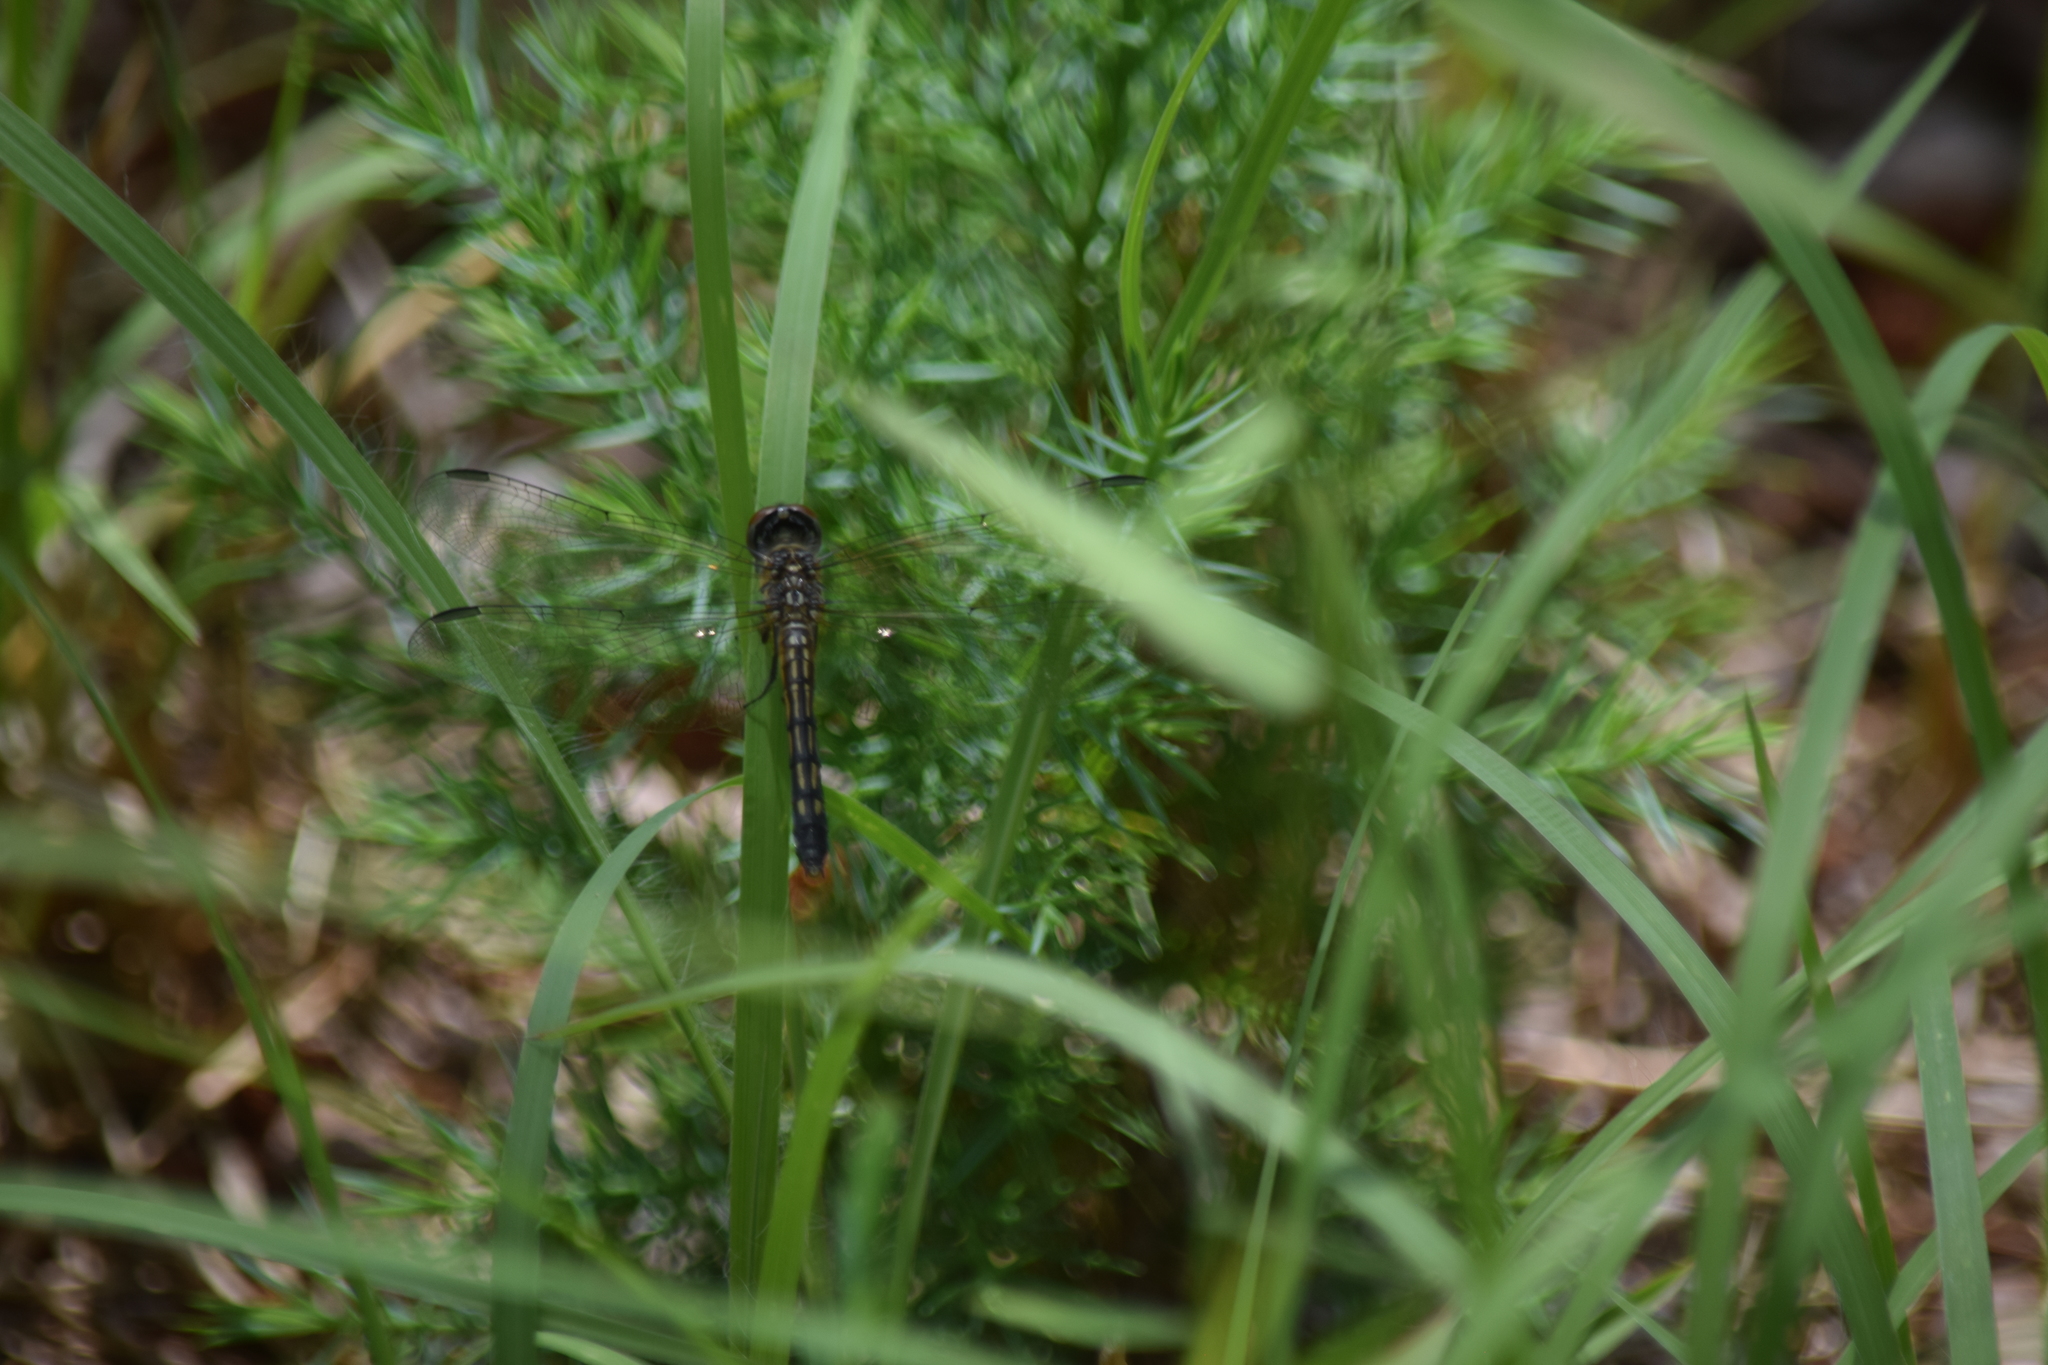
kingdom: Animalia
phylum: Arthropoda
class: Insecta
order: Odonata
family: Libellulidae
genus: Pachydiplax
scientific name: Pachydiplax longipennis
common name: Blue dasher
